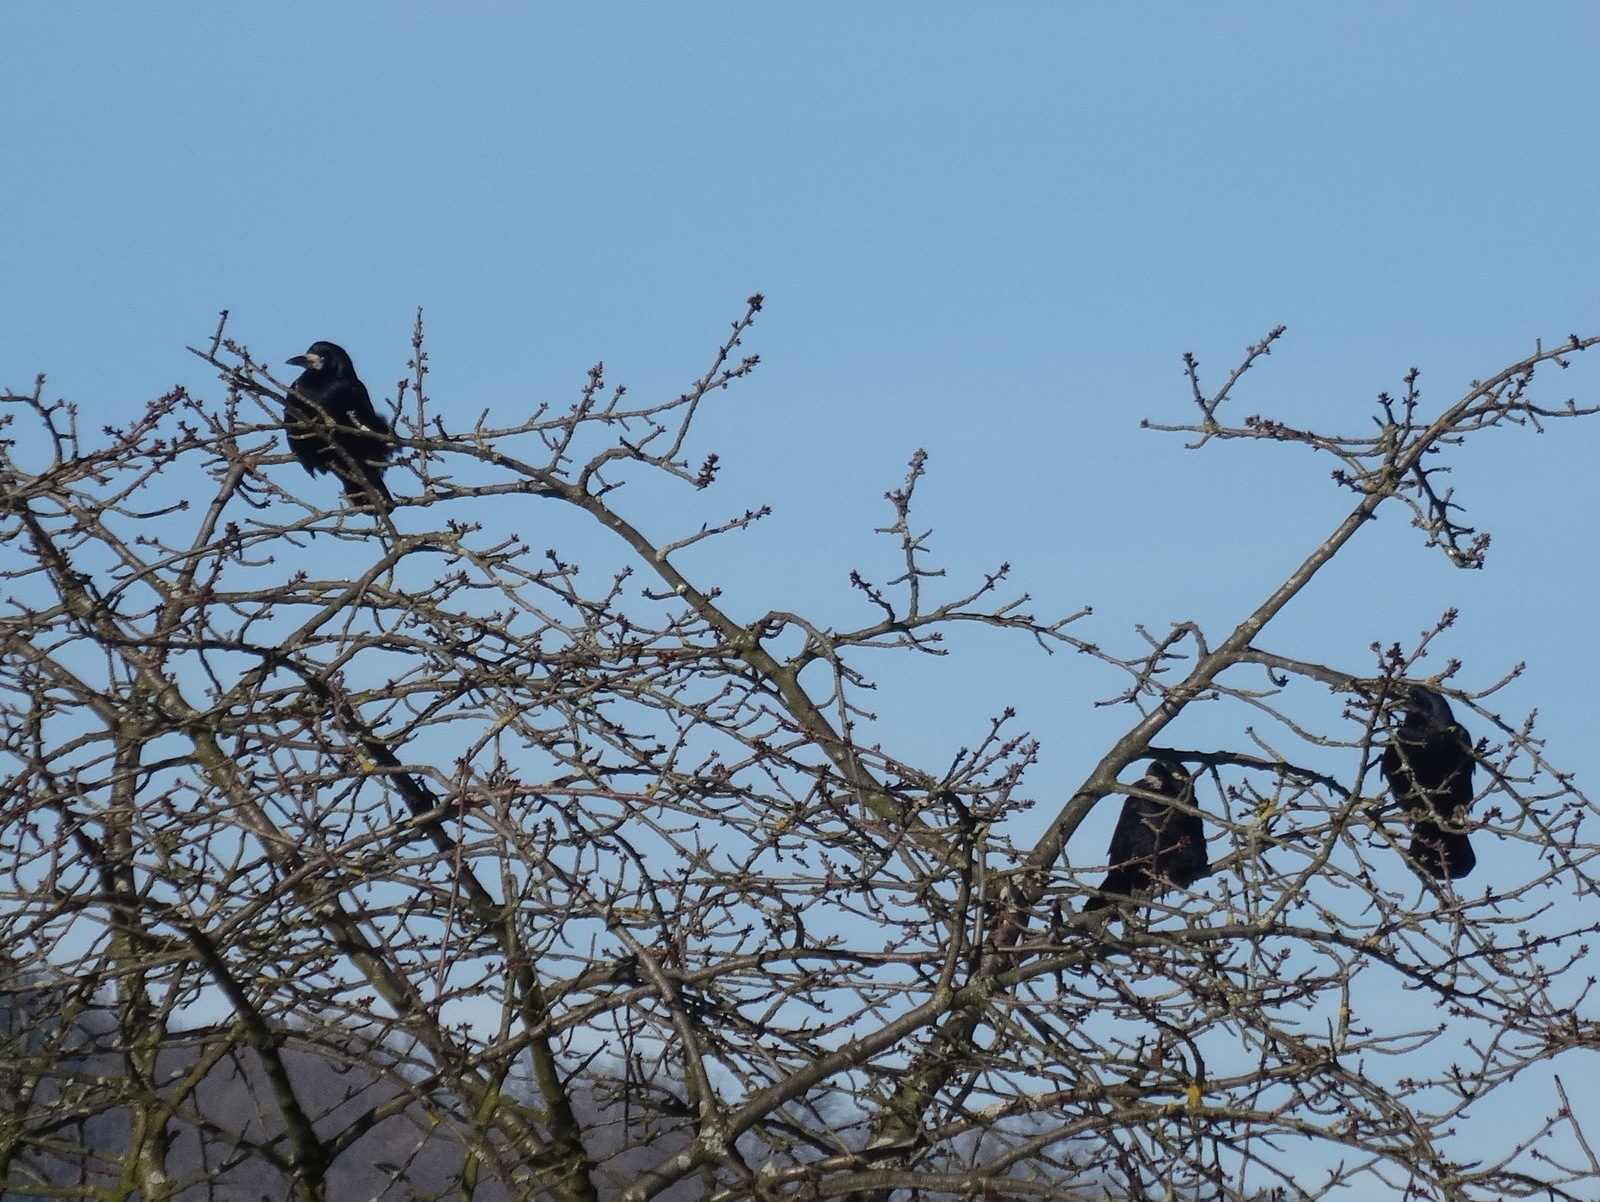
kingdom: Animalia
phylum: Chordata
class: Aves
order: Passeriformes
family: Corvidae
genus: Corvus
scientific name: Corvus frugilegus
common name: Rook
